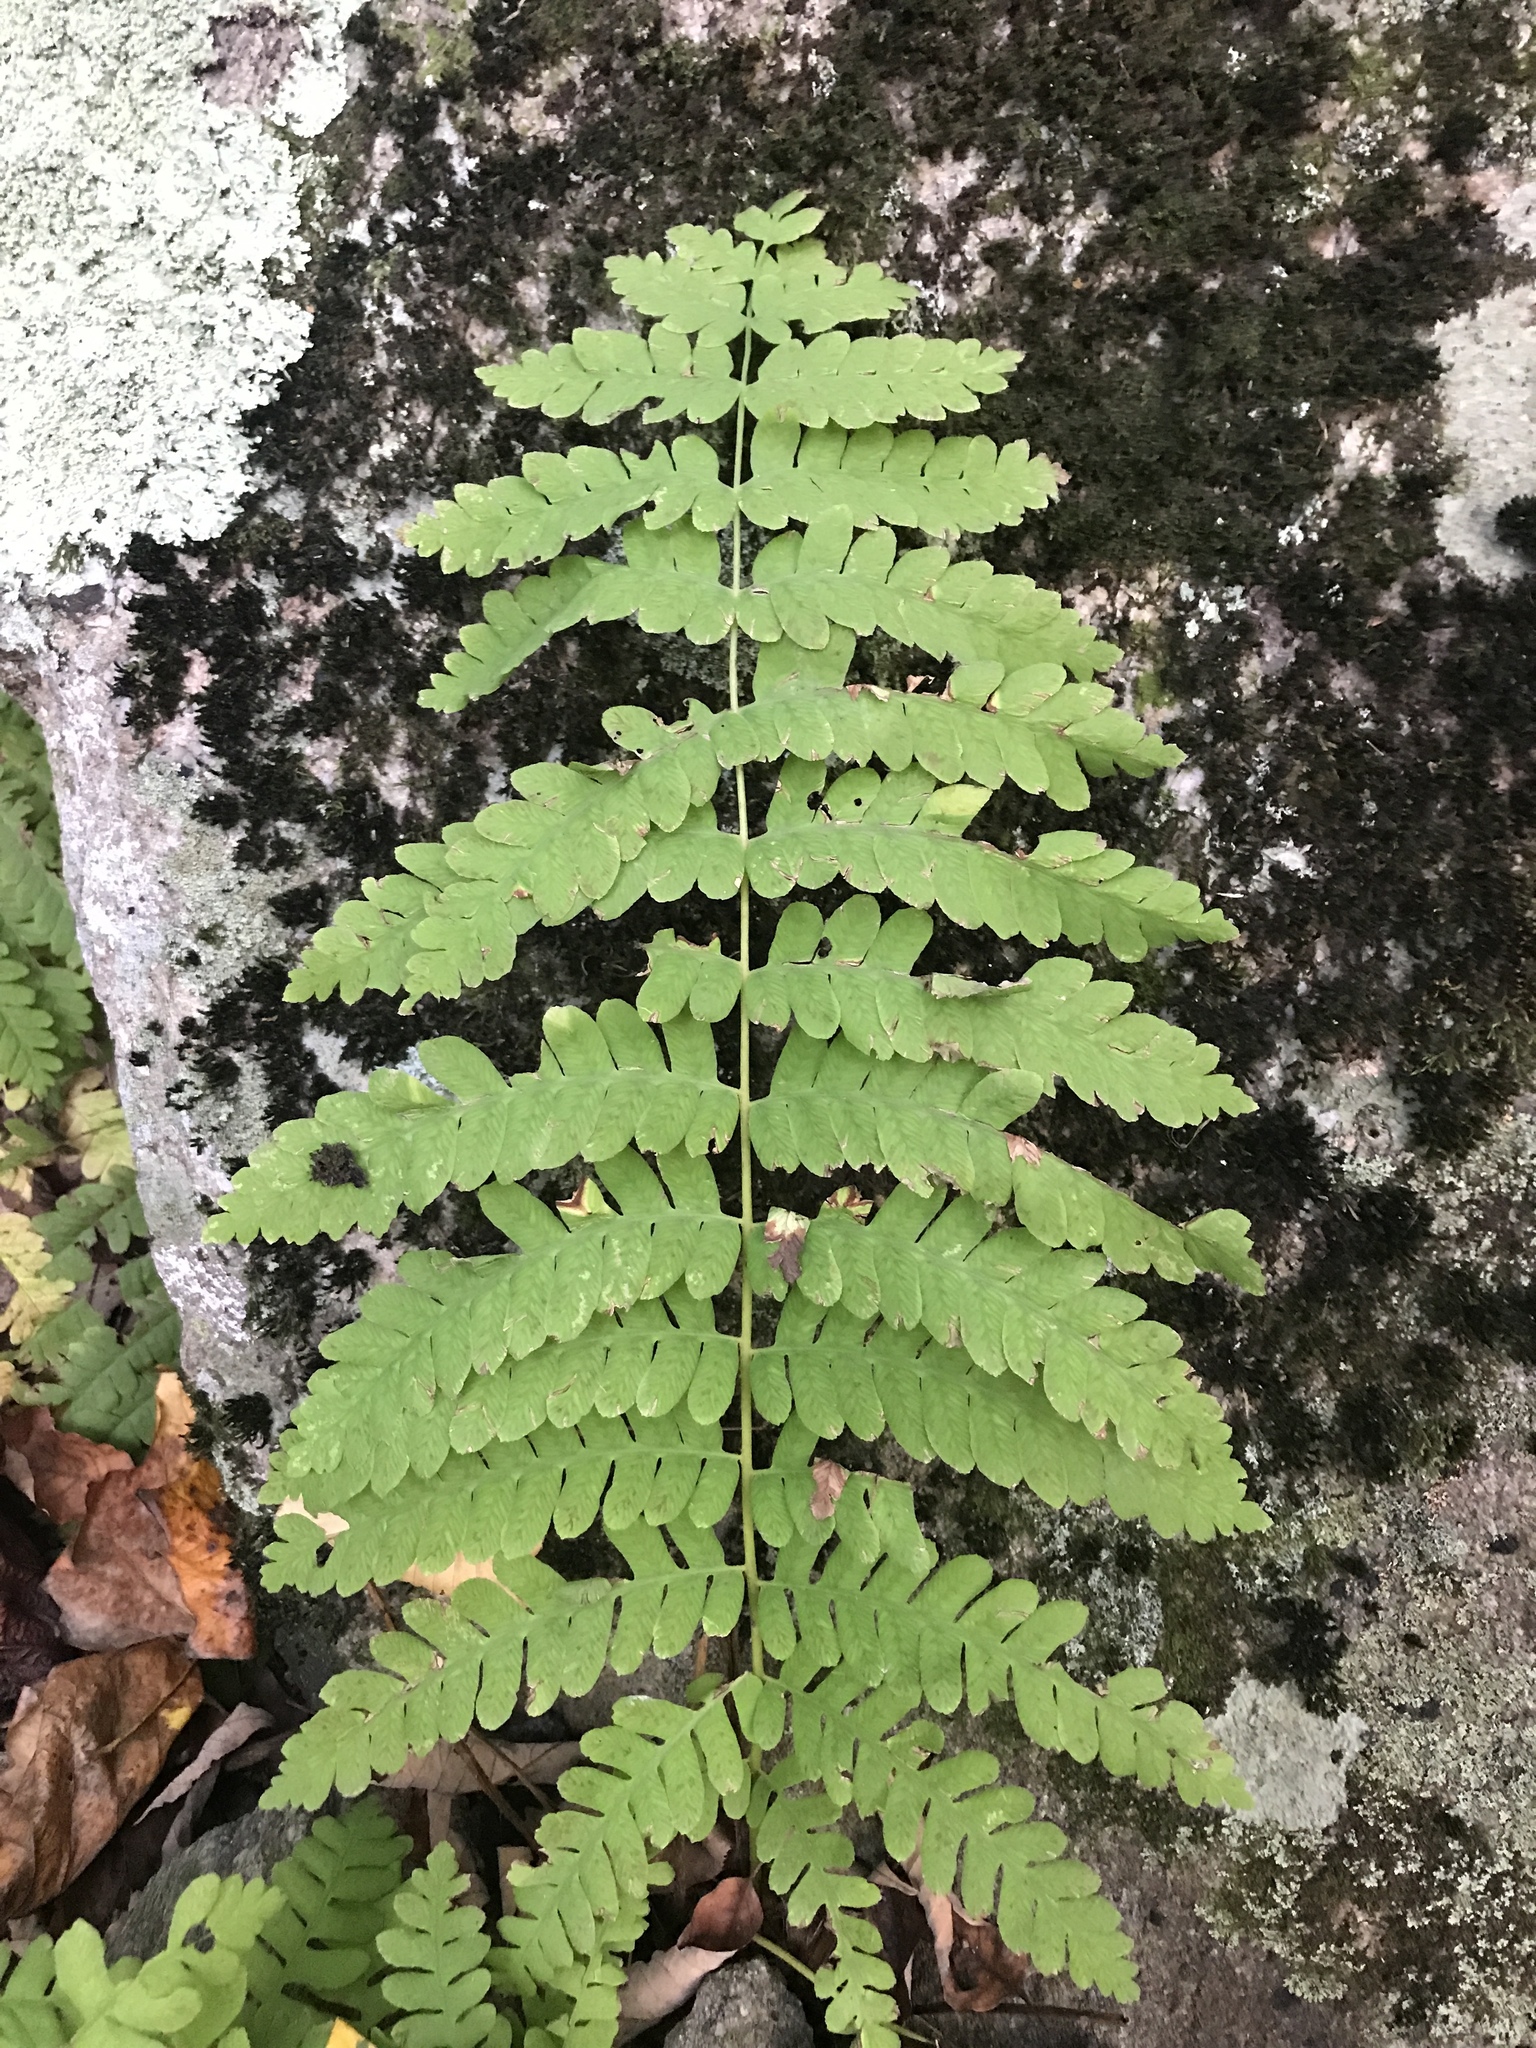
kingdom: Plantae
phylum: Tracheophyta
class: Polypodiopsida
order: Osmundales
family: Osmundaceae
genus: Claytosmunda
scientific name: Claytosmunda claytoniana
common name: Clayton's fern
